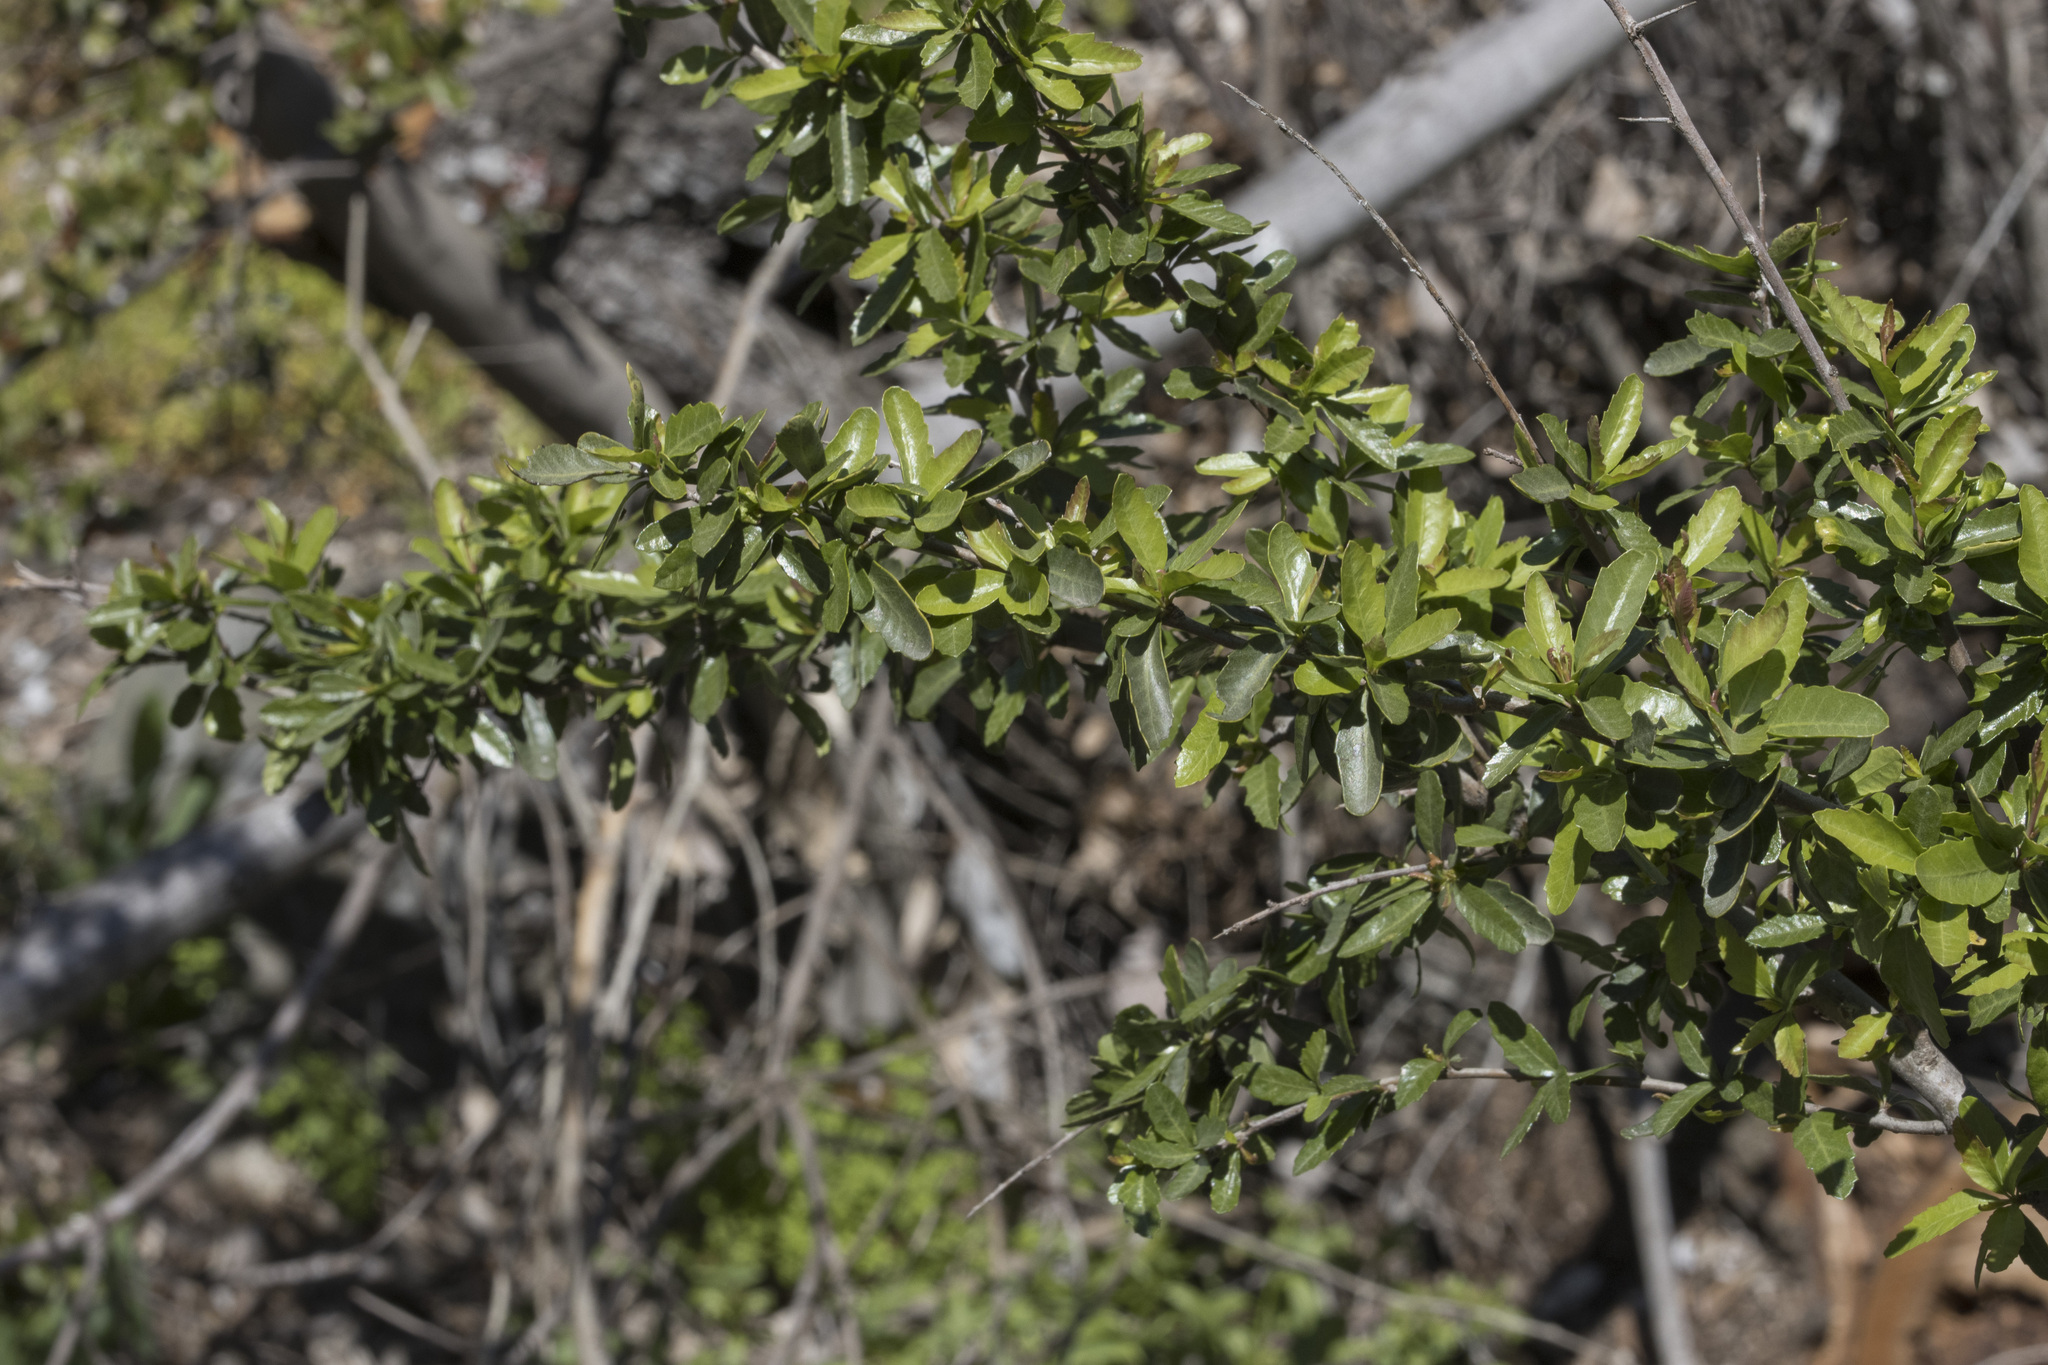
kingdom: Plantae
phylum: Tracheophyta
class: Magnoliopsida
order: Sapindales
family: Anacardiaceae
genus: Schinus
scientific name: Schinus polygama
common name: Hardee peppertree
